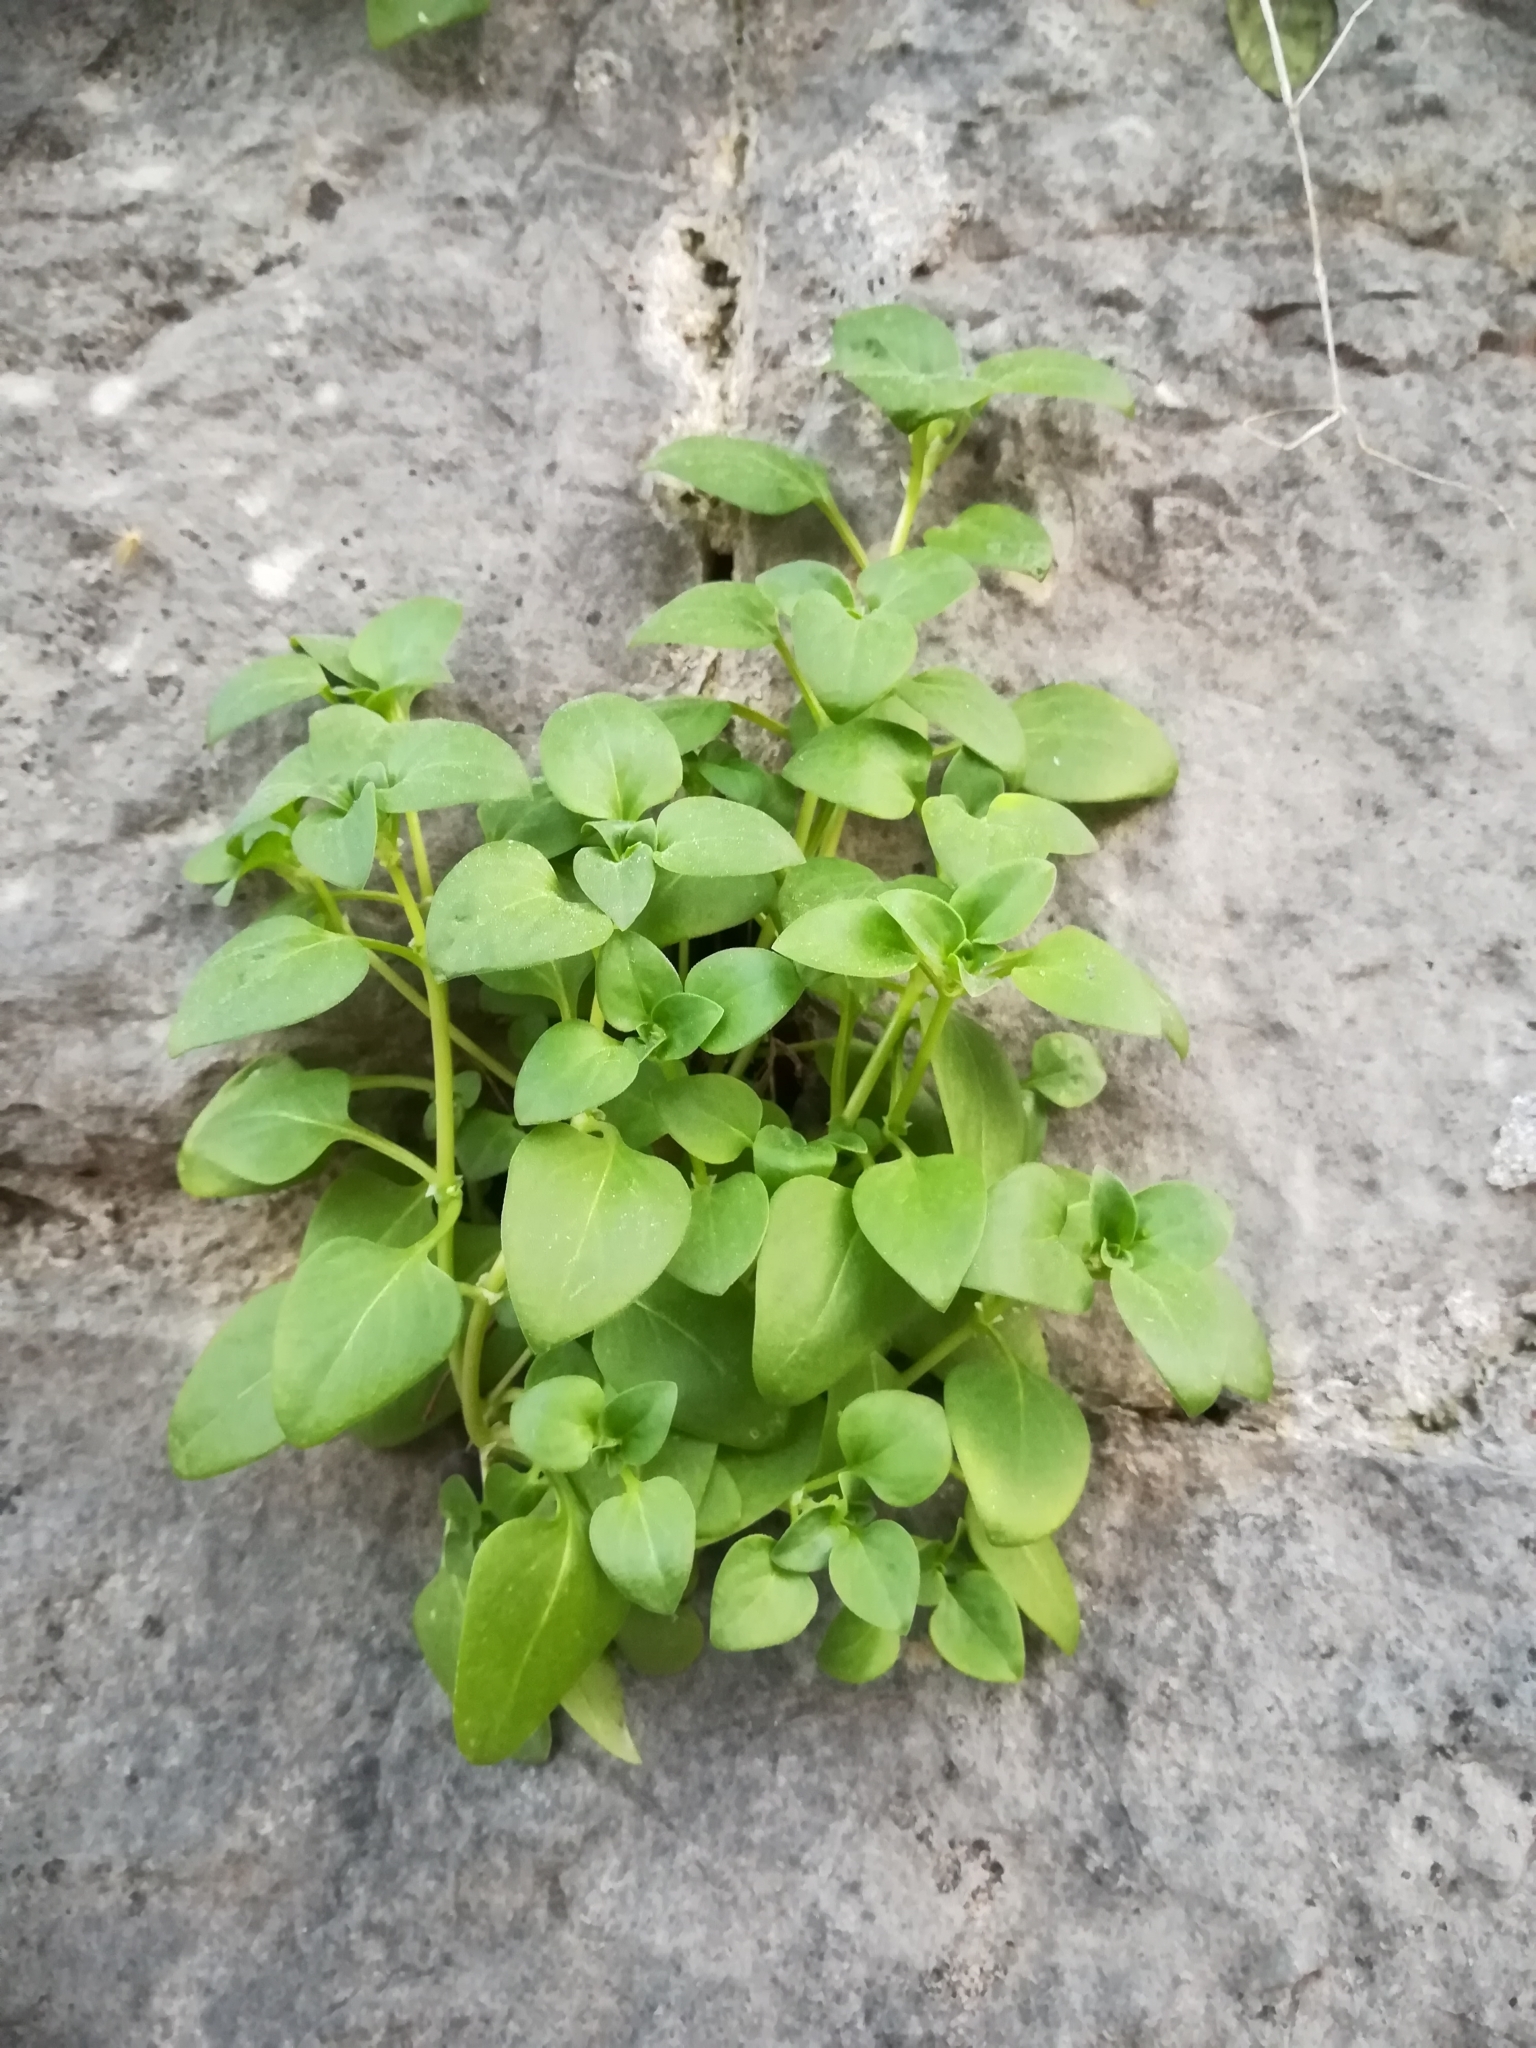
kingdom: Plantae
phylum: Tracheophyta
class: Magnoliopsida
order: Gentianales
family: Rubiaceae
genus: Theligonum
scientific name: Theligonum cynocrambe
